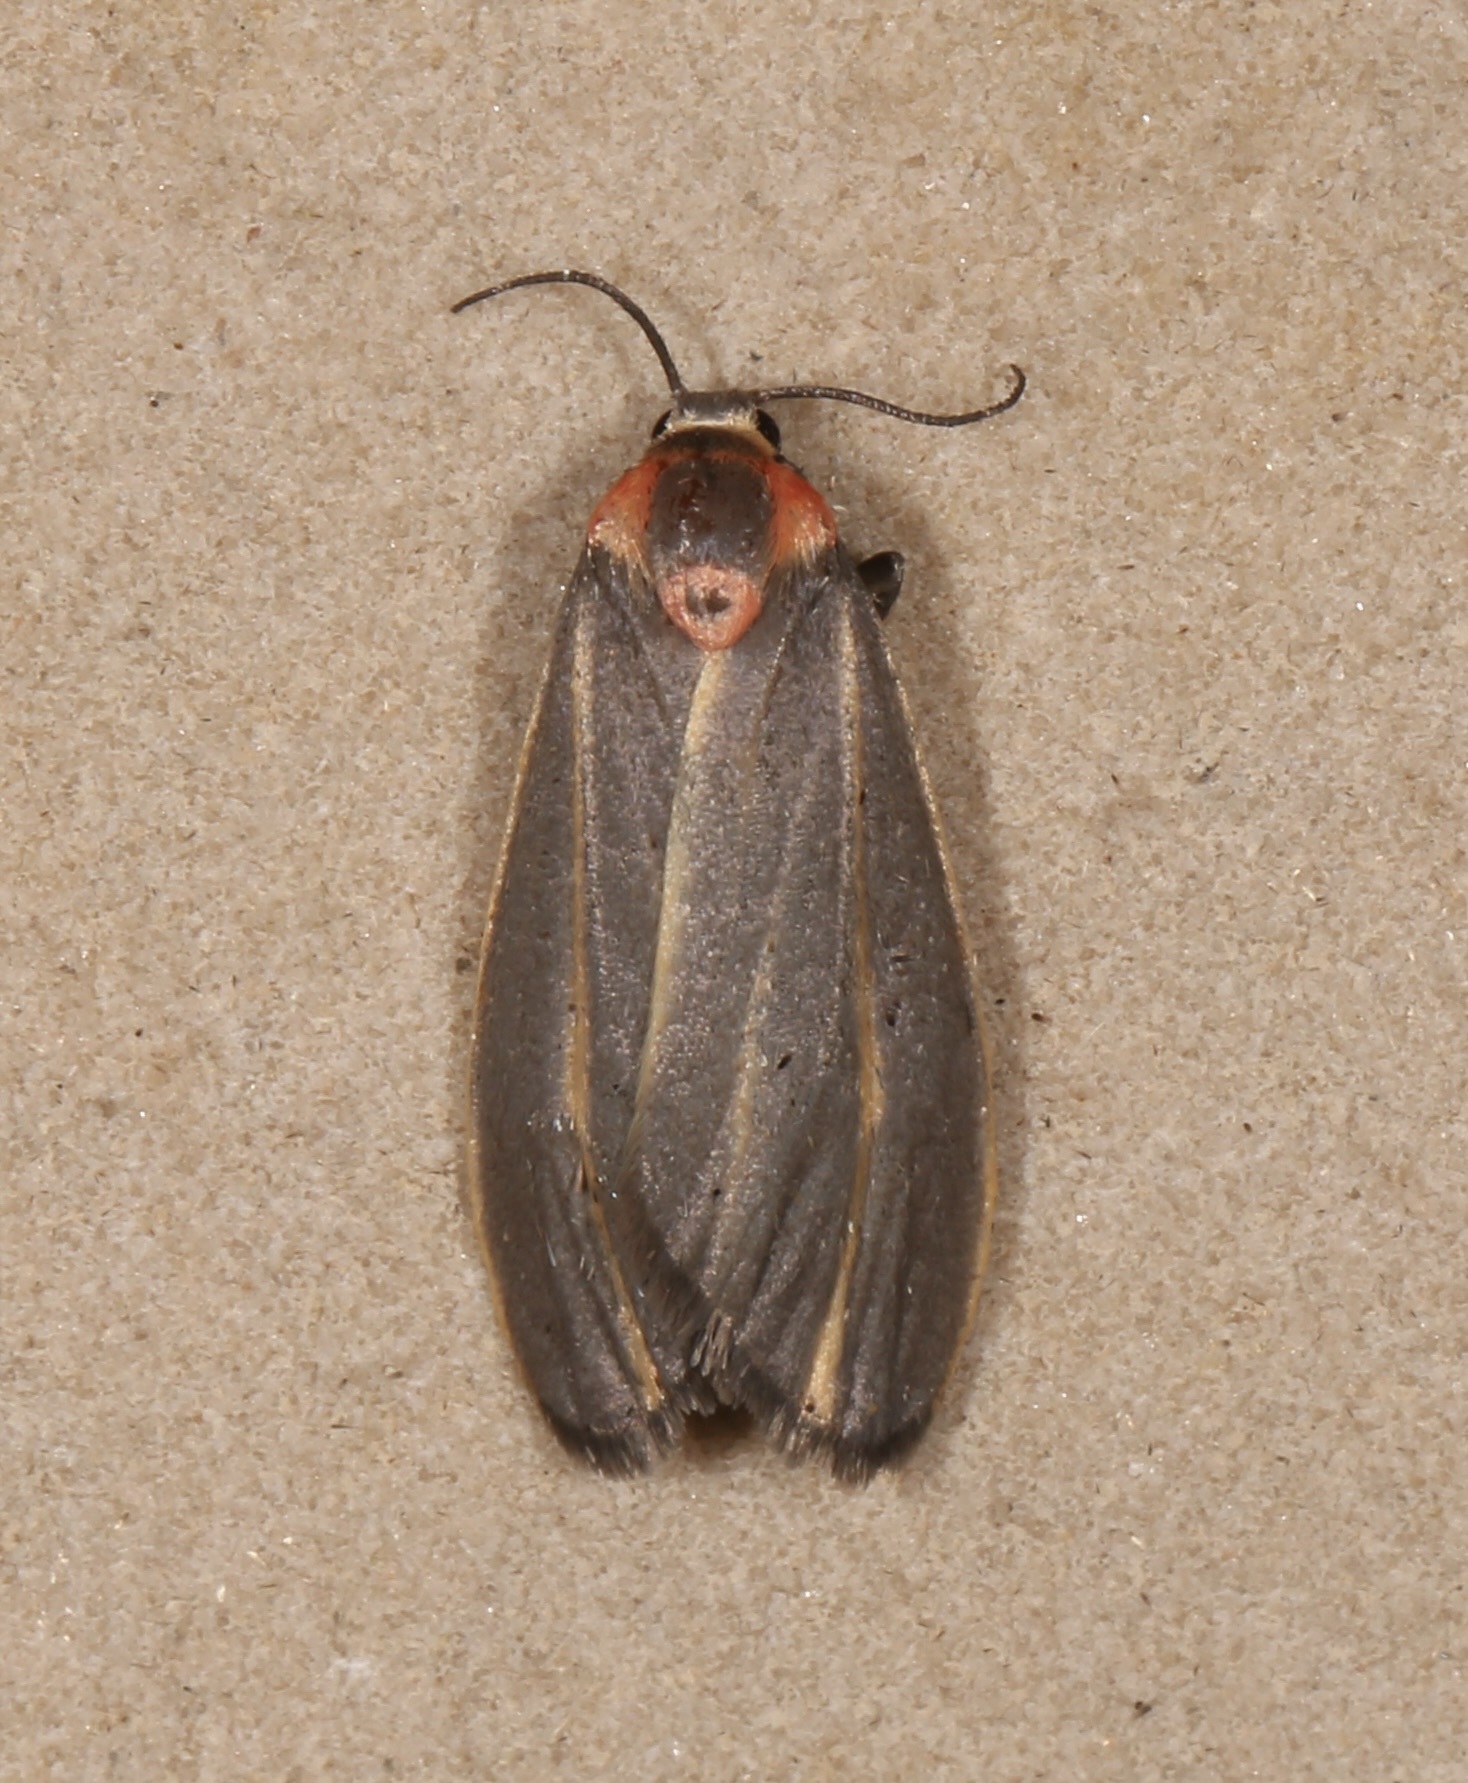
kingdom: Animalia
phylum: Arthropoda
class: Insecta
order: Lepidoptera
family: Erebidae
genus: Haematomis
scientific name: Haematomis uniformis
